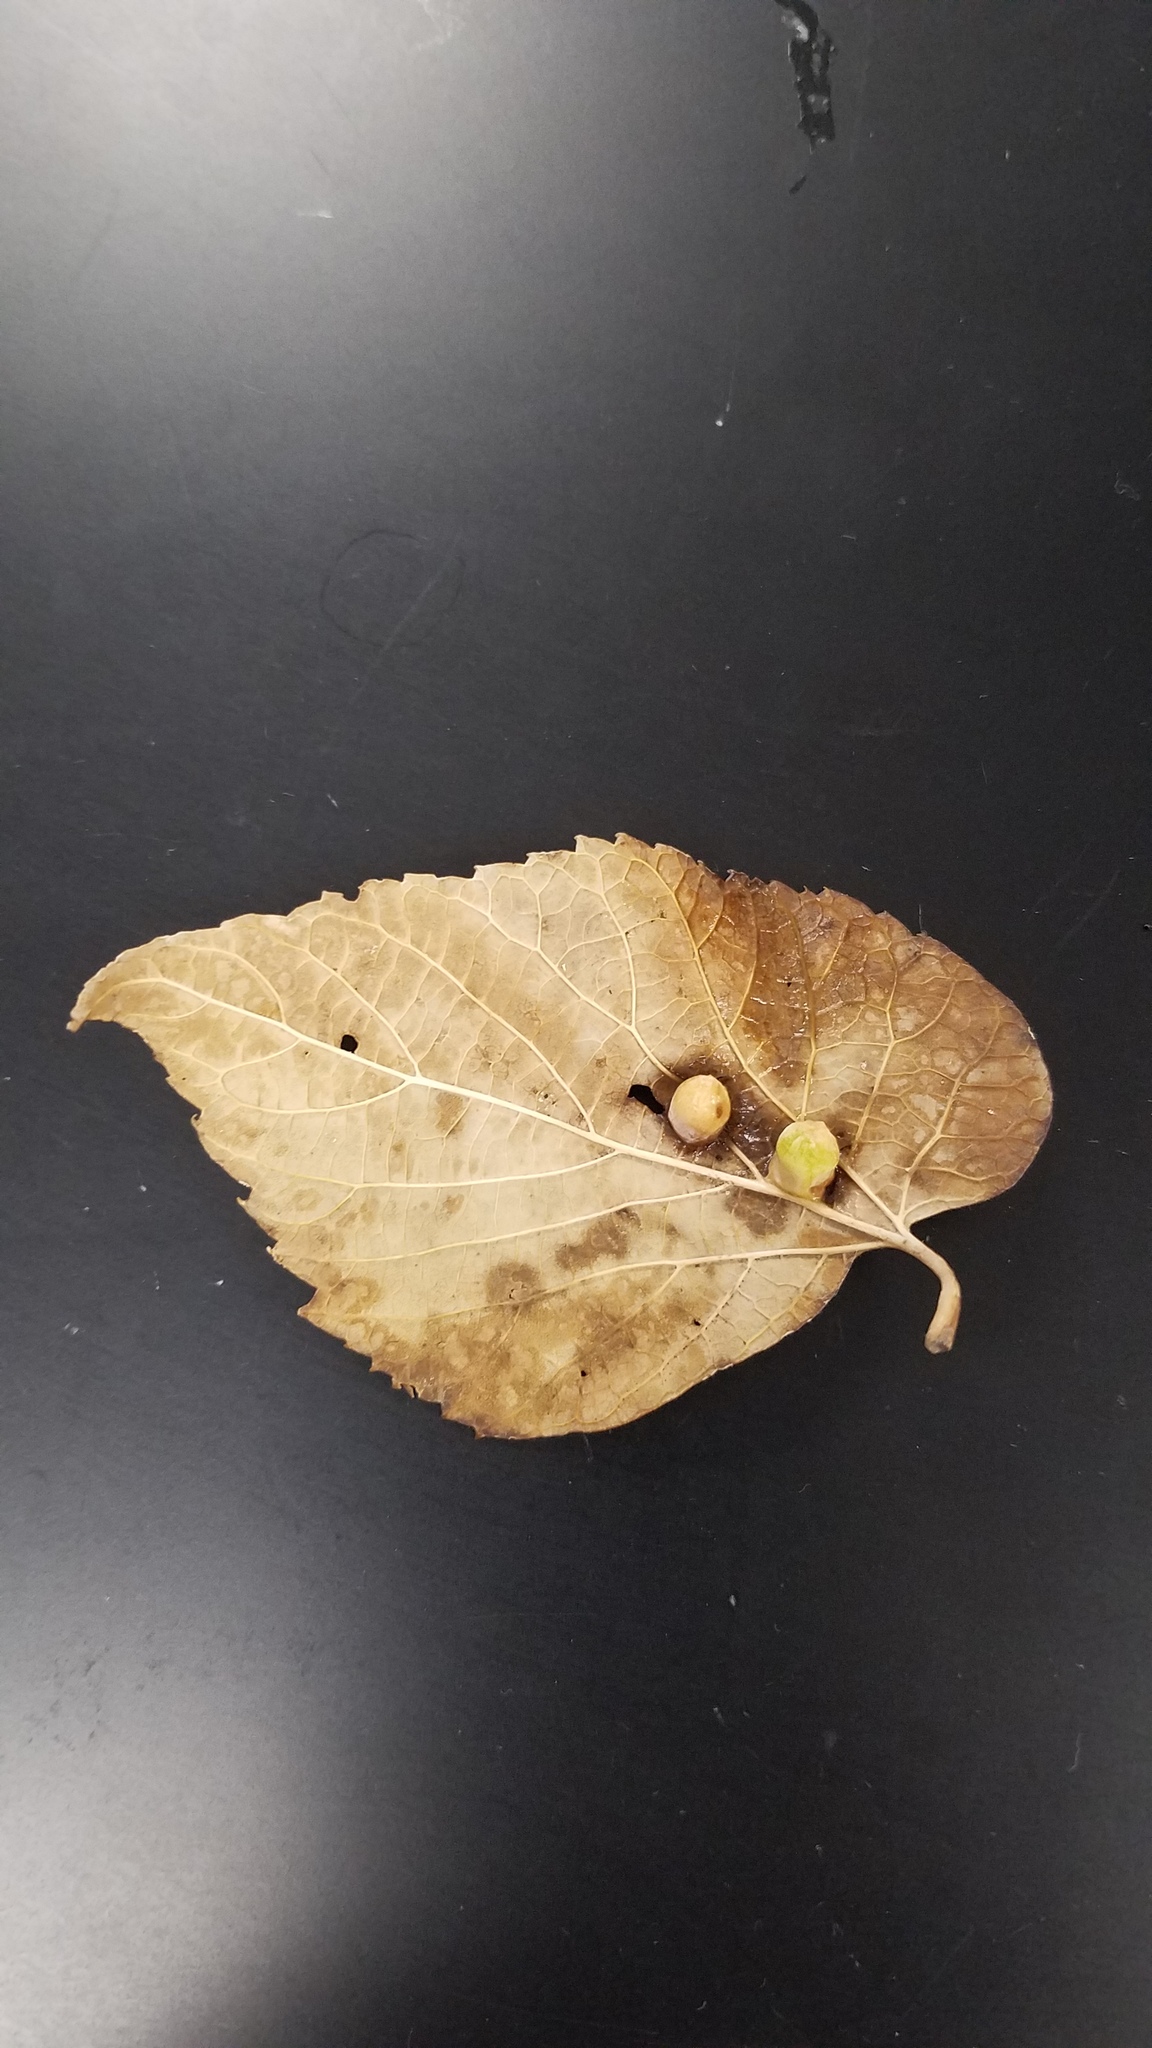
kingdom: Animalia
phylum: Arthropoda
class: Insecta
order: Hemiptera
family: Aphalaridae
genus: Pachypsylla
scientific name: Pachypsylla celtidismamma
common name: Hackberry nipplegall psyllid
